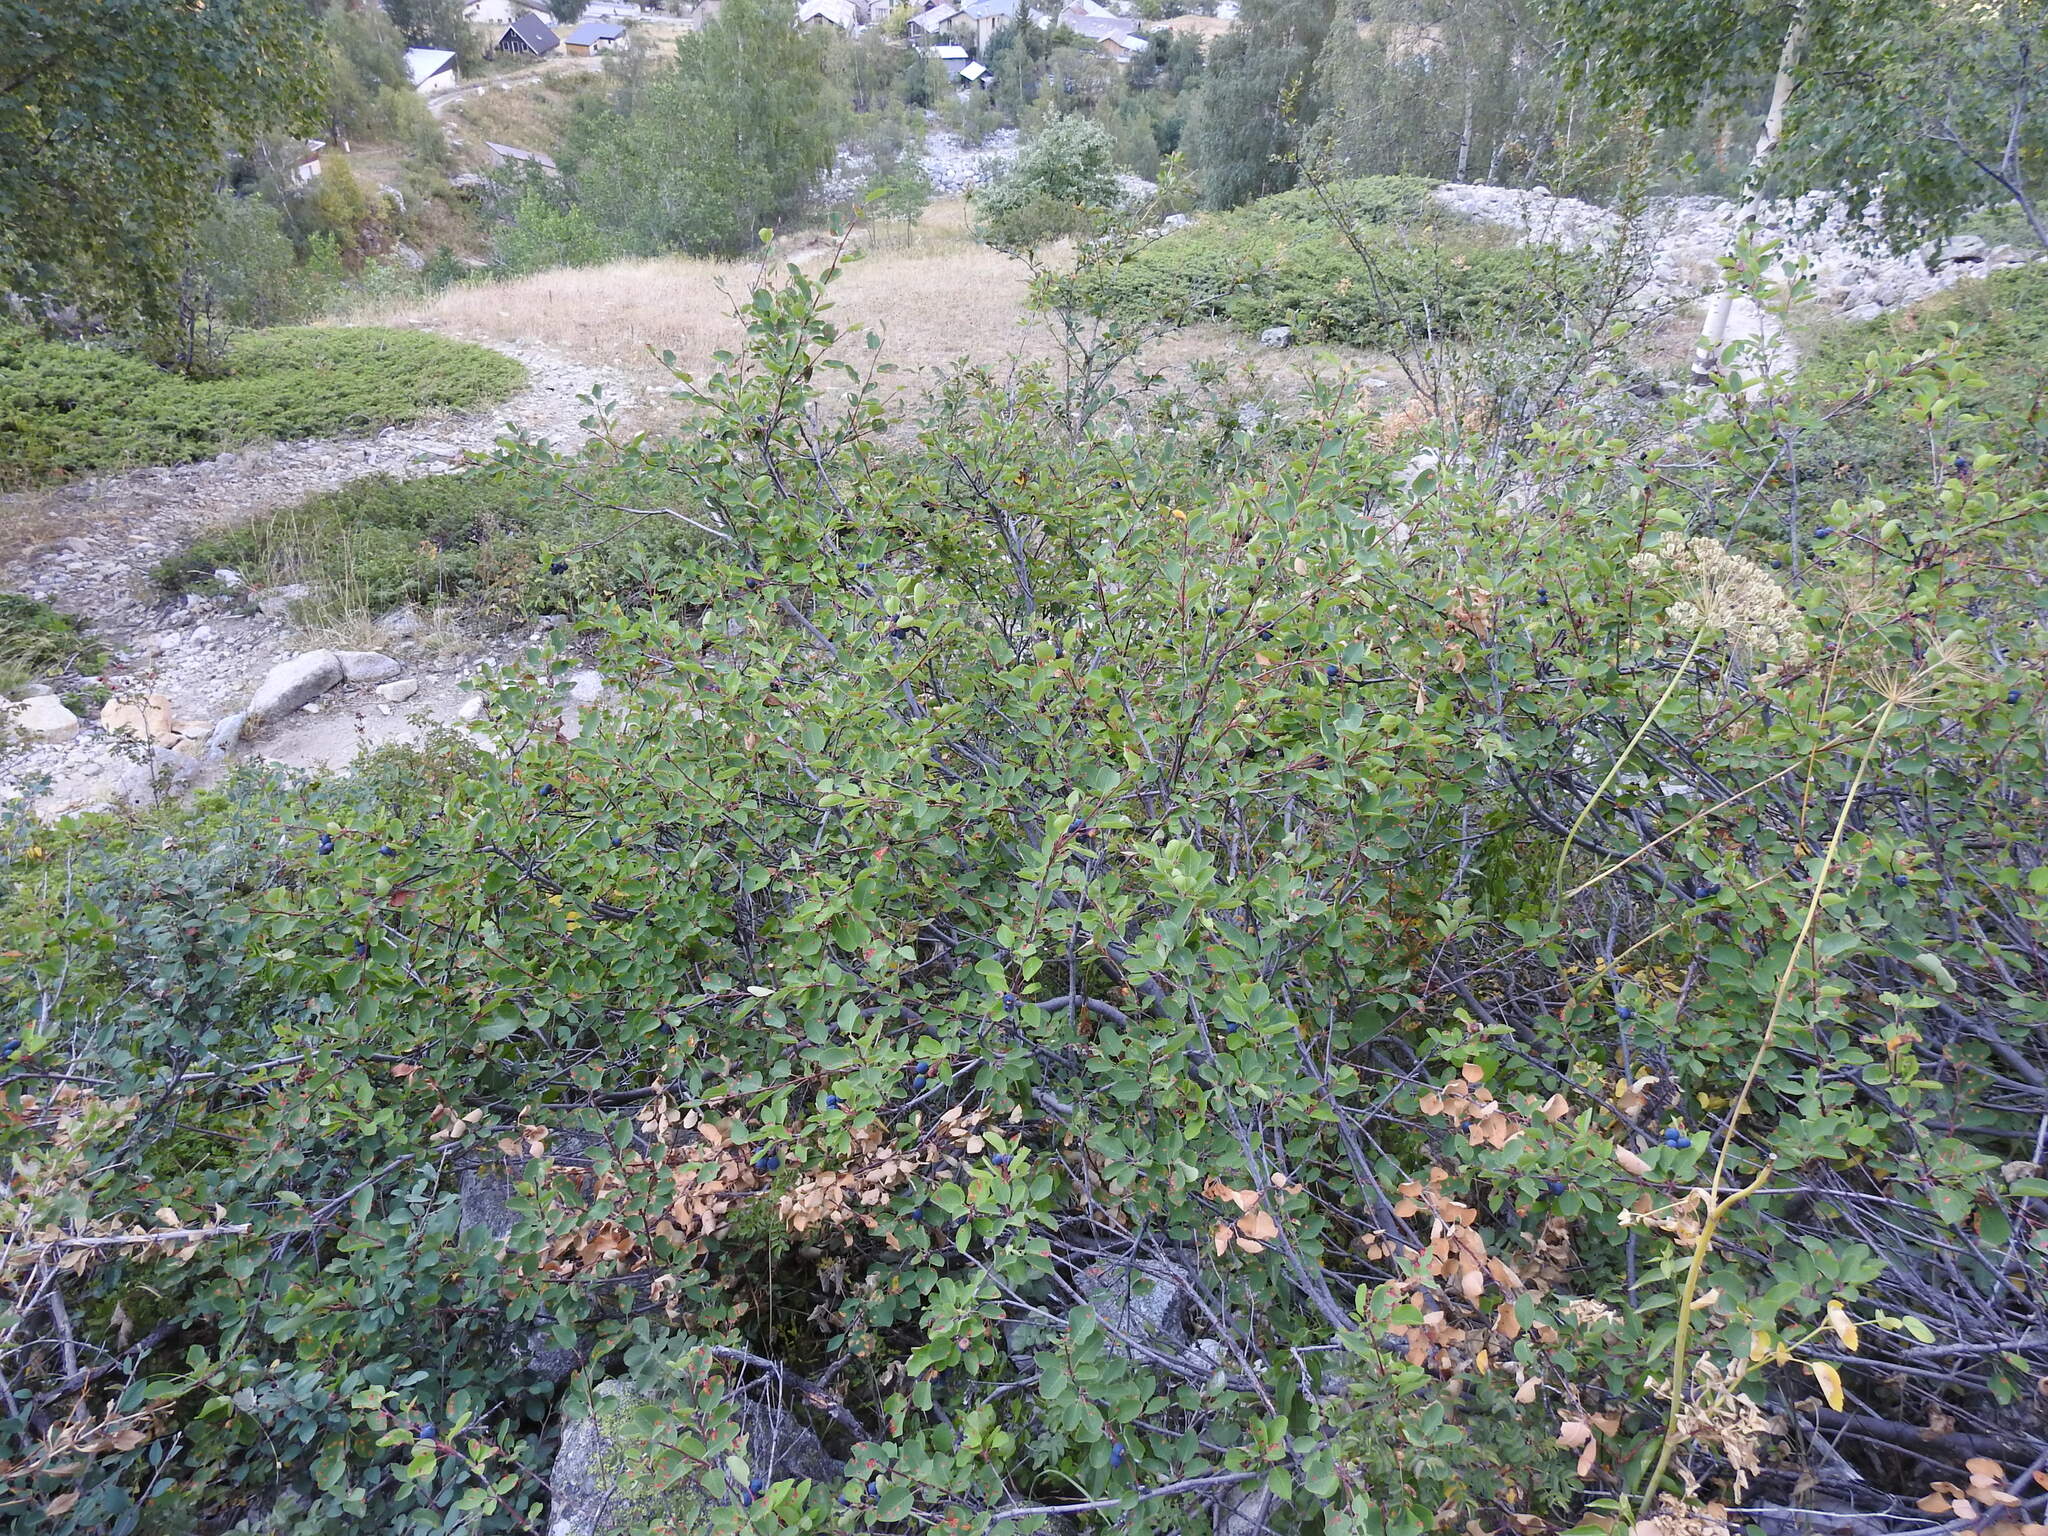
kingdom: Plantae
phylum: Tracheophyta
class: Magnoliopsida
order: Rosales
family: Rosaceae
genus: Amelanchier
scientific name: Amelanchier ovalis
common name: Serviceberry
